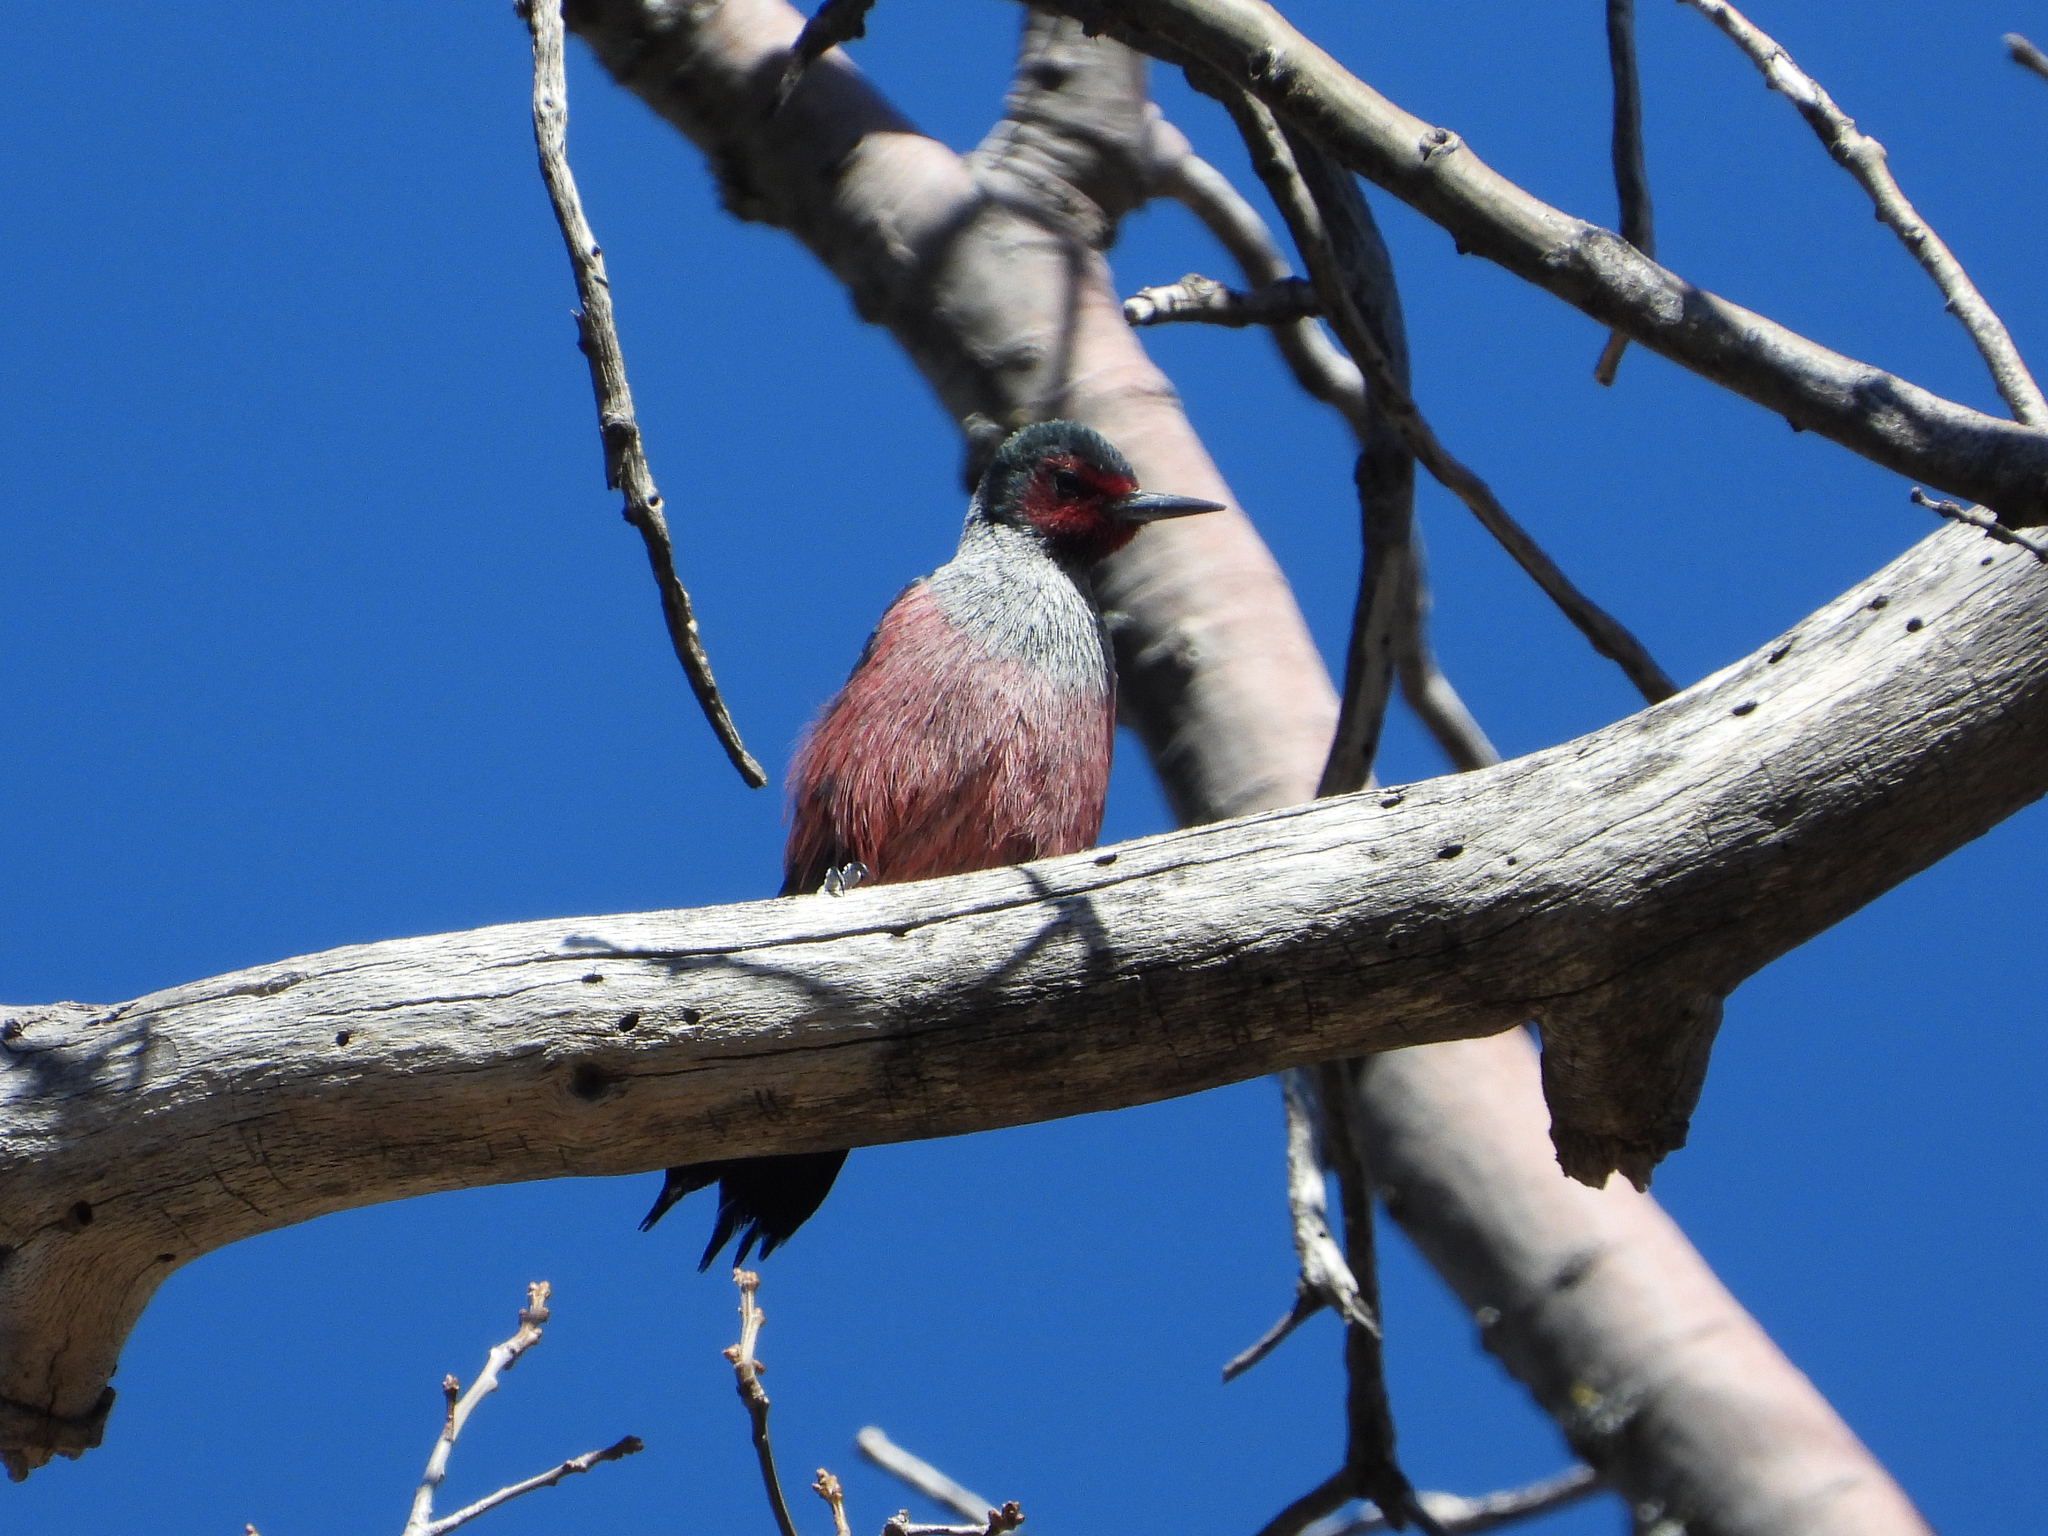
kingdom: Animalia
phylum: Chordata
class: Aves
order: Piciformes
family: Picidae
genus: Melanerpes
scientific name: Melanerpes lewis
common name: Lewis's woodpecker
